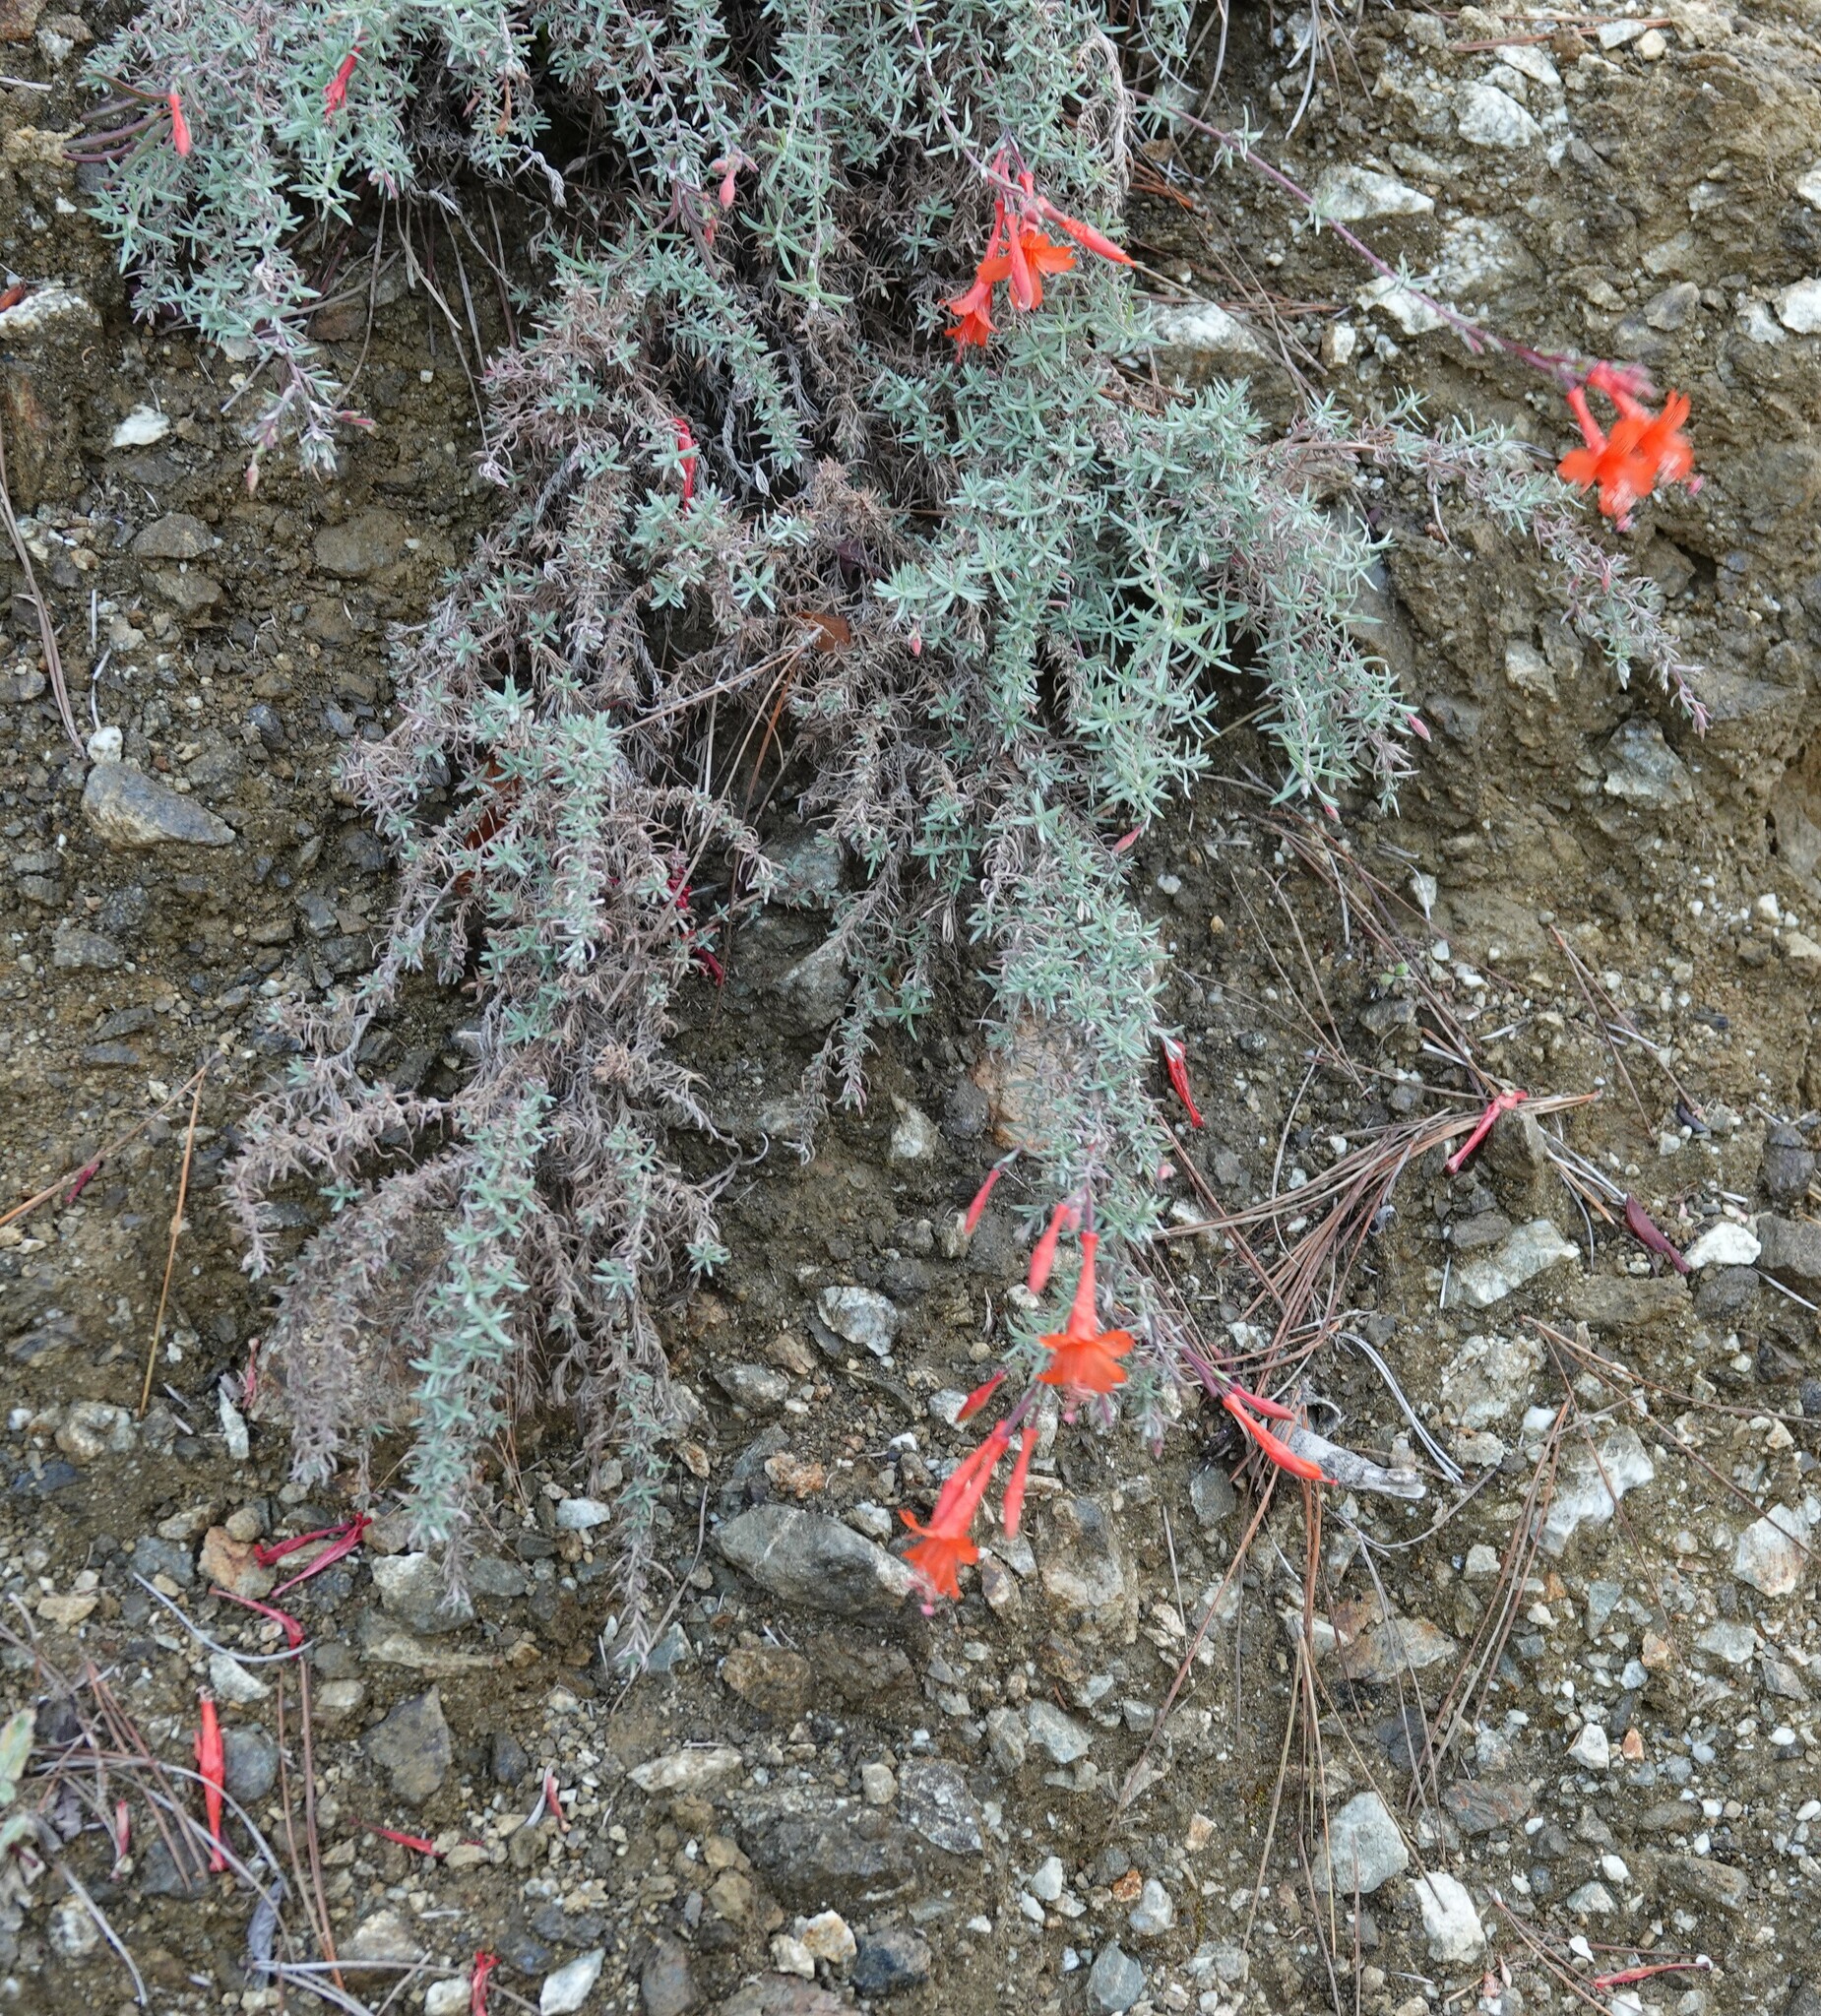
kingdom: Plantae
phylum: Tracheophyta
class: Magnoliopsida
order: Myrtales
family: Onagraceae
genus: Epilobium
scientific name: Epilobium canum
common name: California-fuchsia
